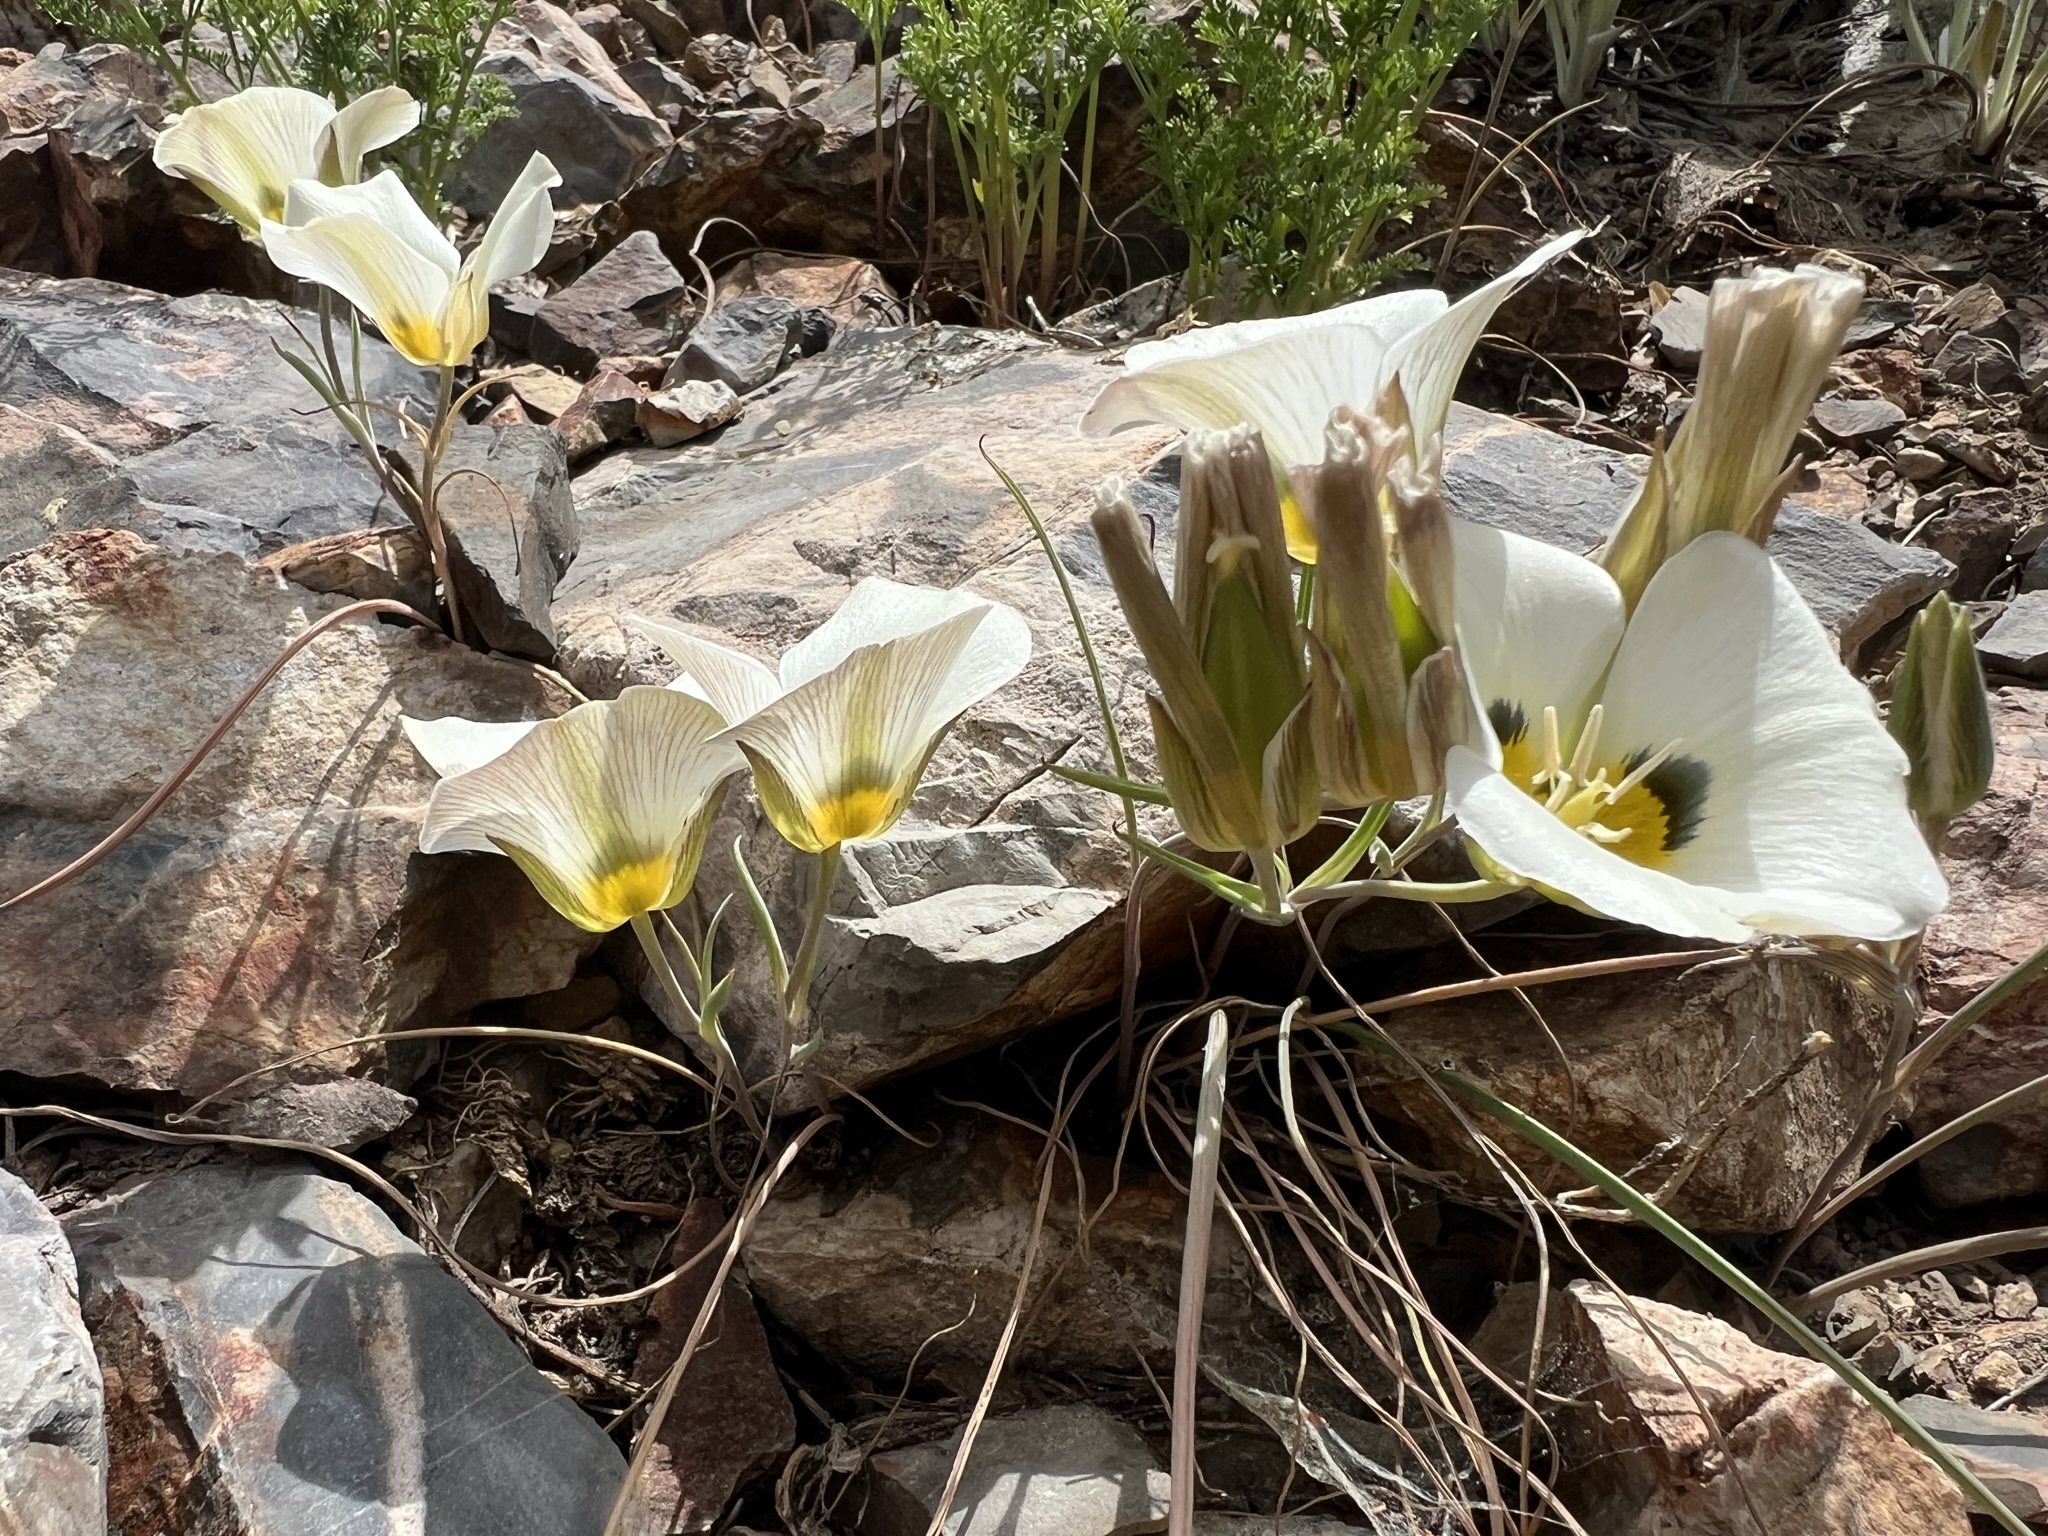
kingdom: Plantae
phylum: Tracheophyta
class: Liliopsida
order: Liliales
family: Liliaceae
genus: Calochortus
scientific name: Calochortus leichtlinii
